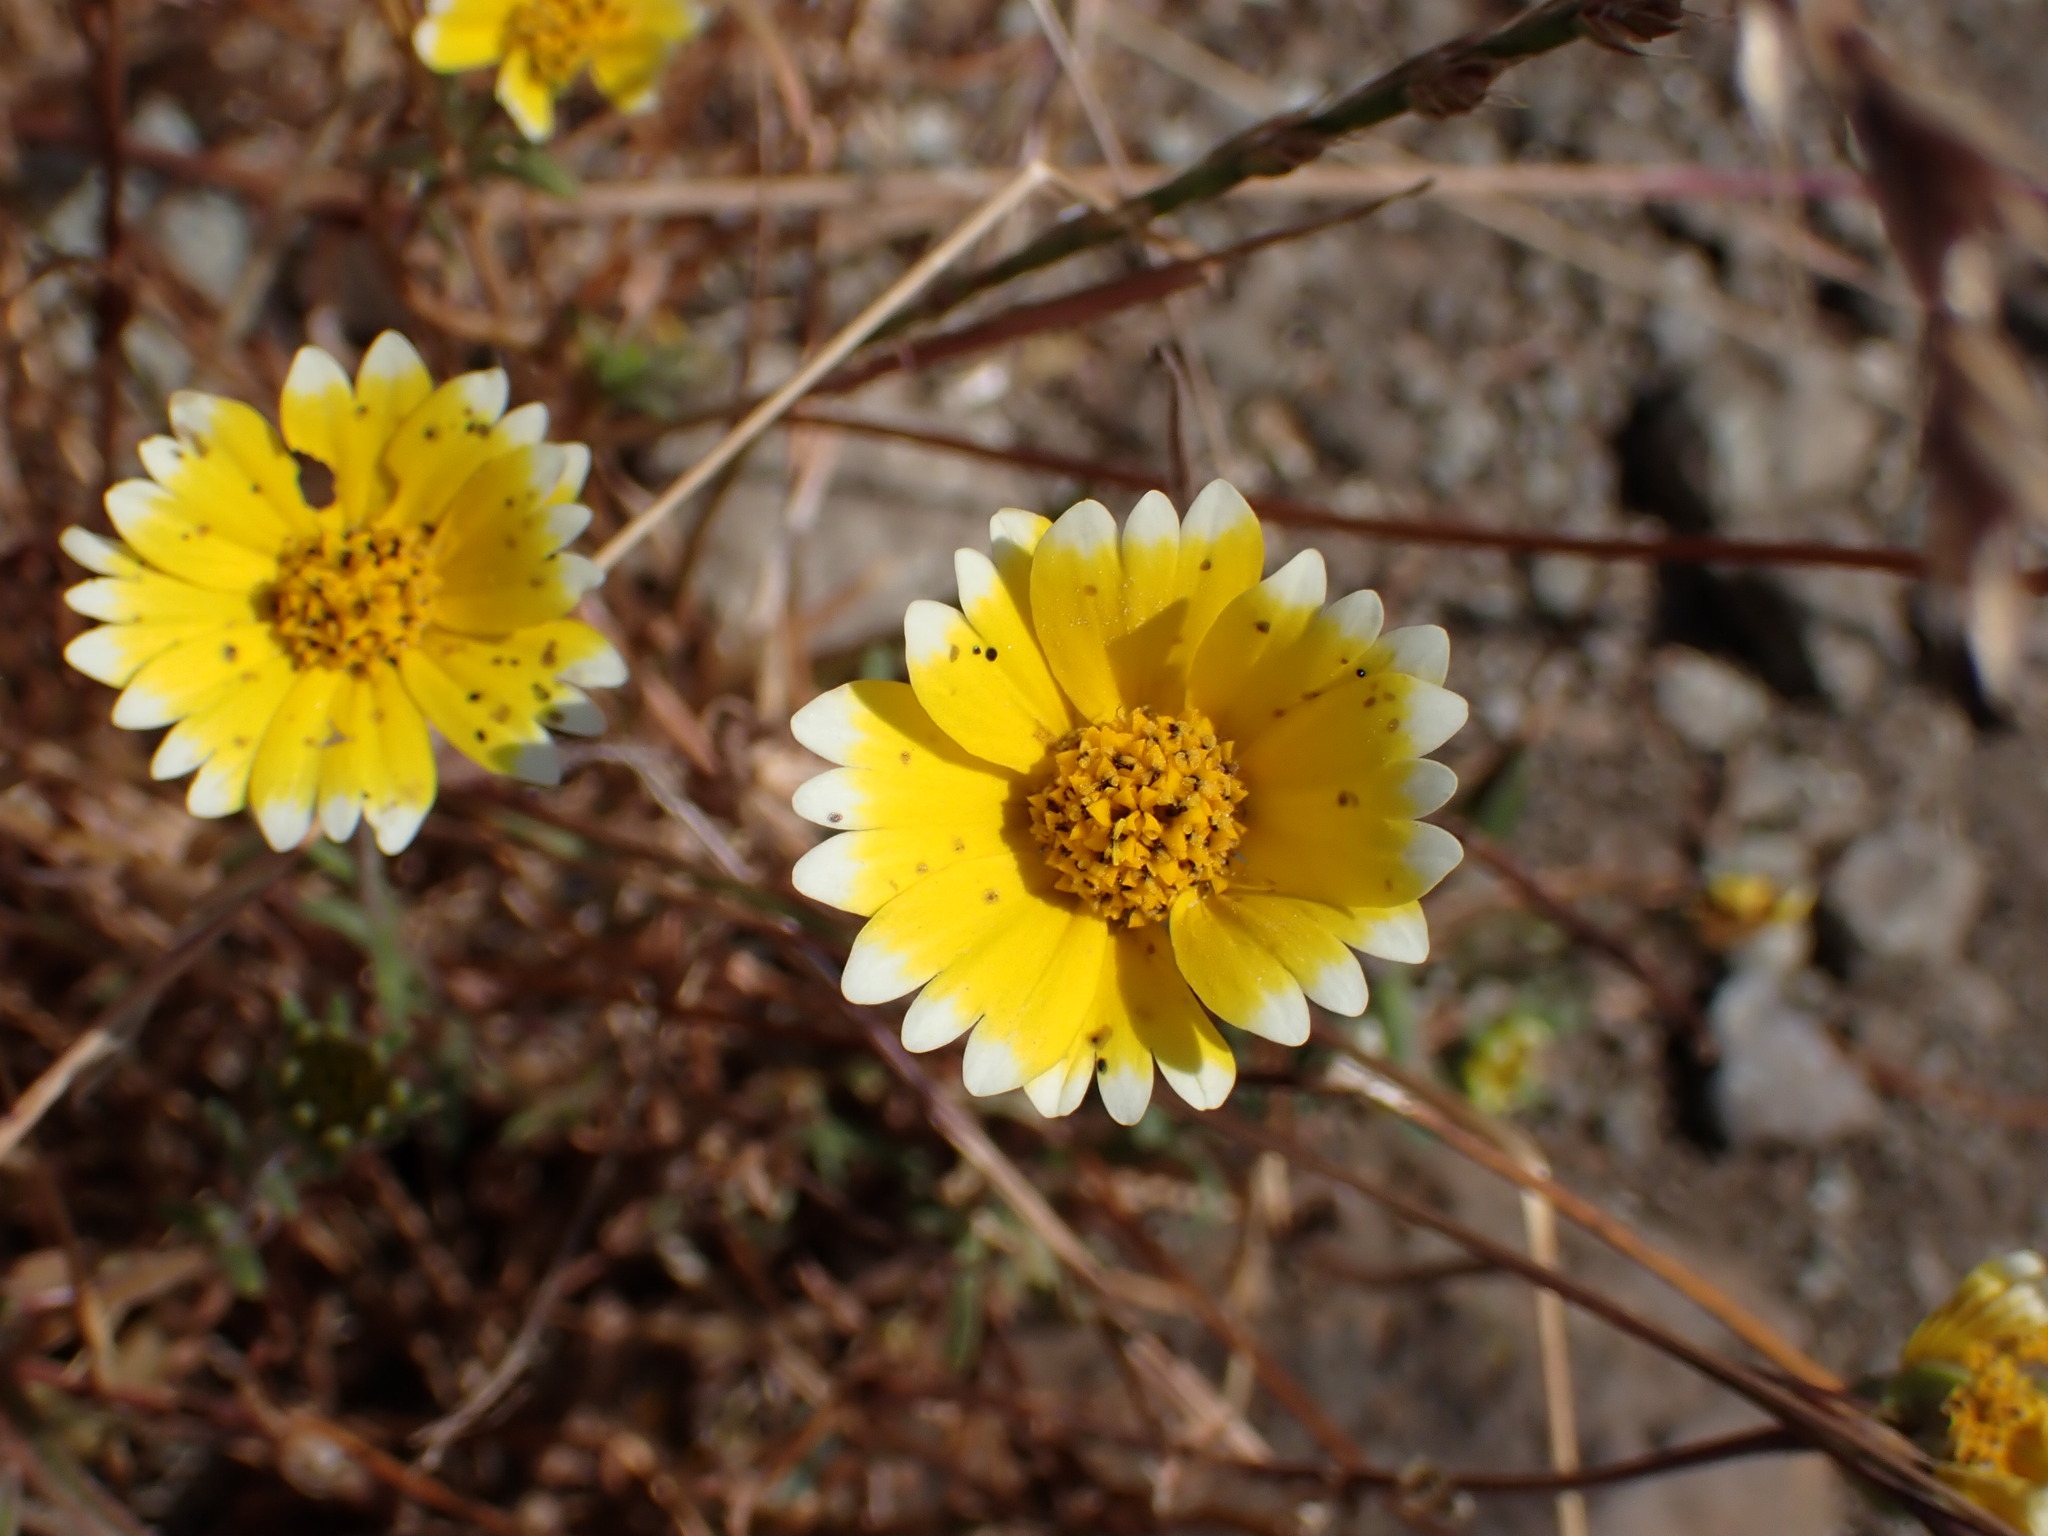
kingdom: Plantae
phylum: Tracheophyta
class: Magnoliopsida
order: Asterales
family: Asteraceae
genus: Layia
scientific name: Layia platyglossa
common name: Tidy-tips
